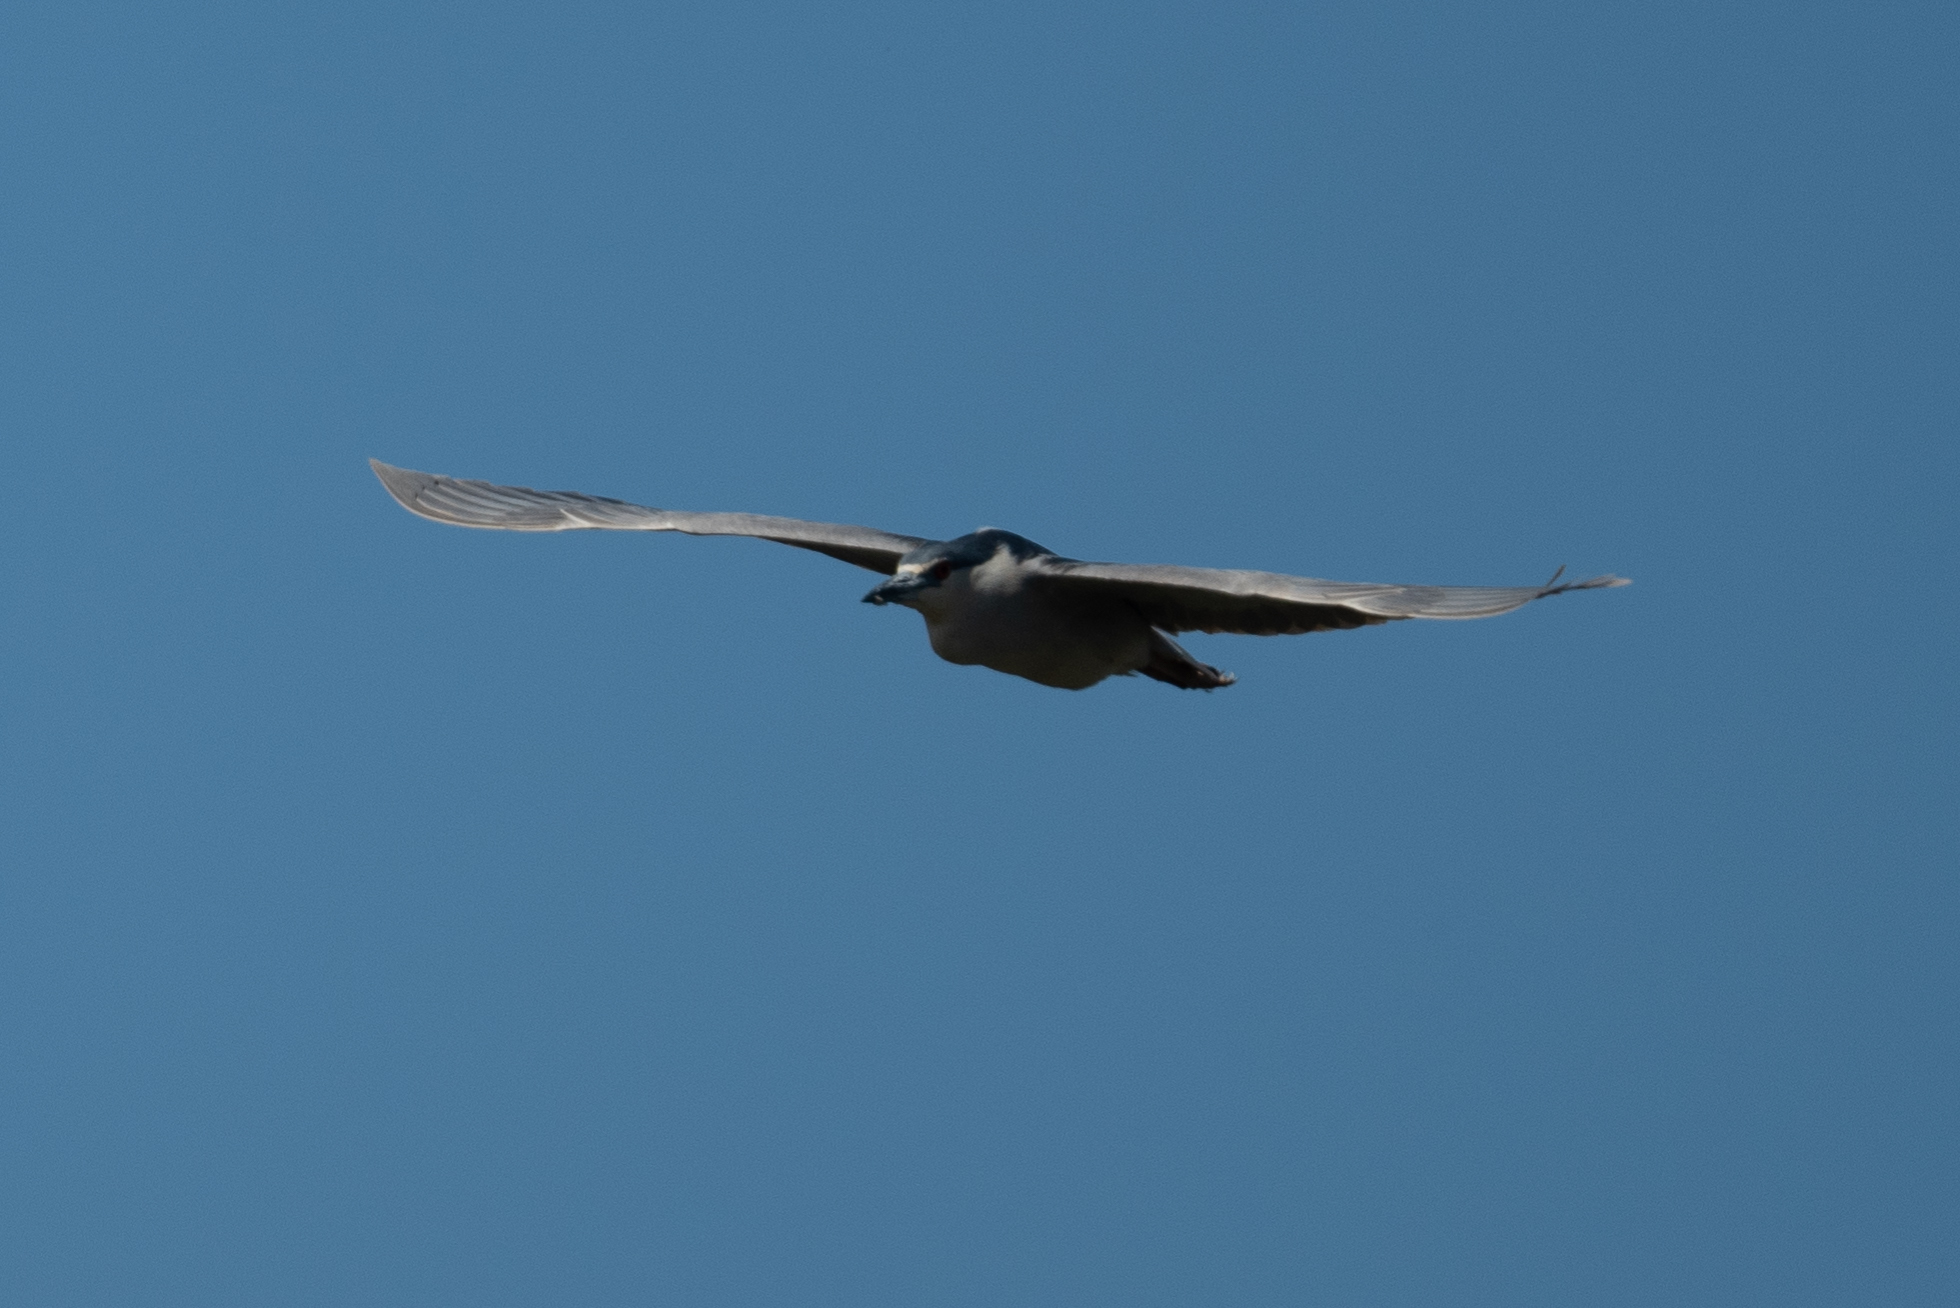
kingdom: Animalia
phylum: Chordata
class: Aves
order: Pelecaniformes
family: Ardeidae
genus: Nycticorax
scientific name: Nycticorax nycticorax
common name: Black-crowned night heron
